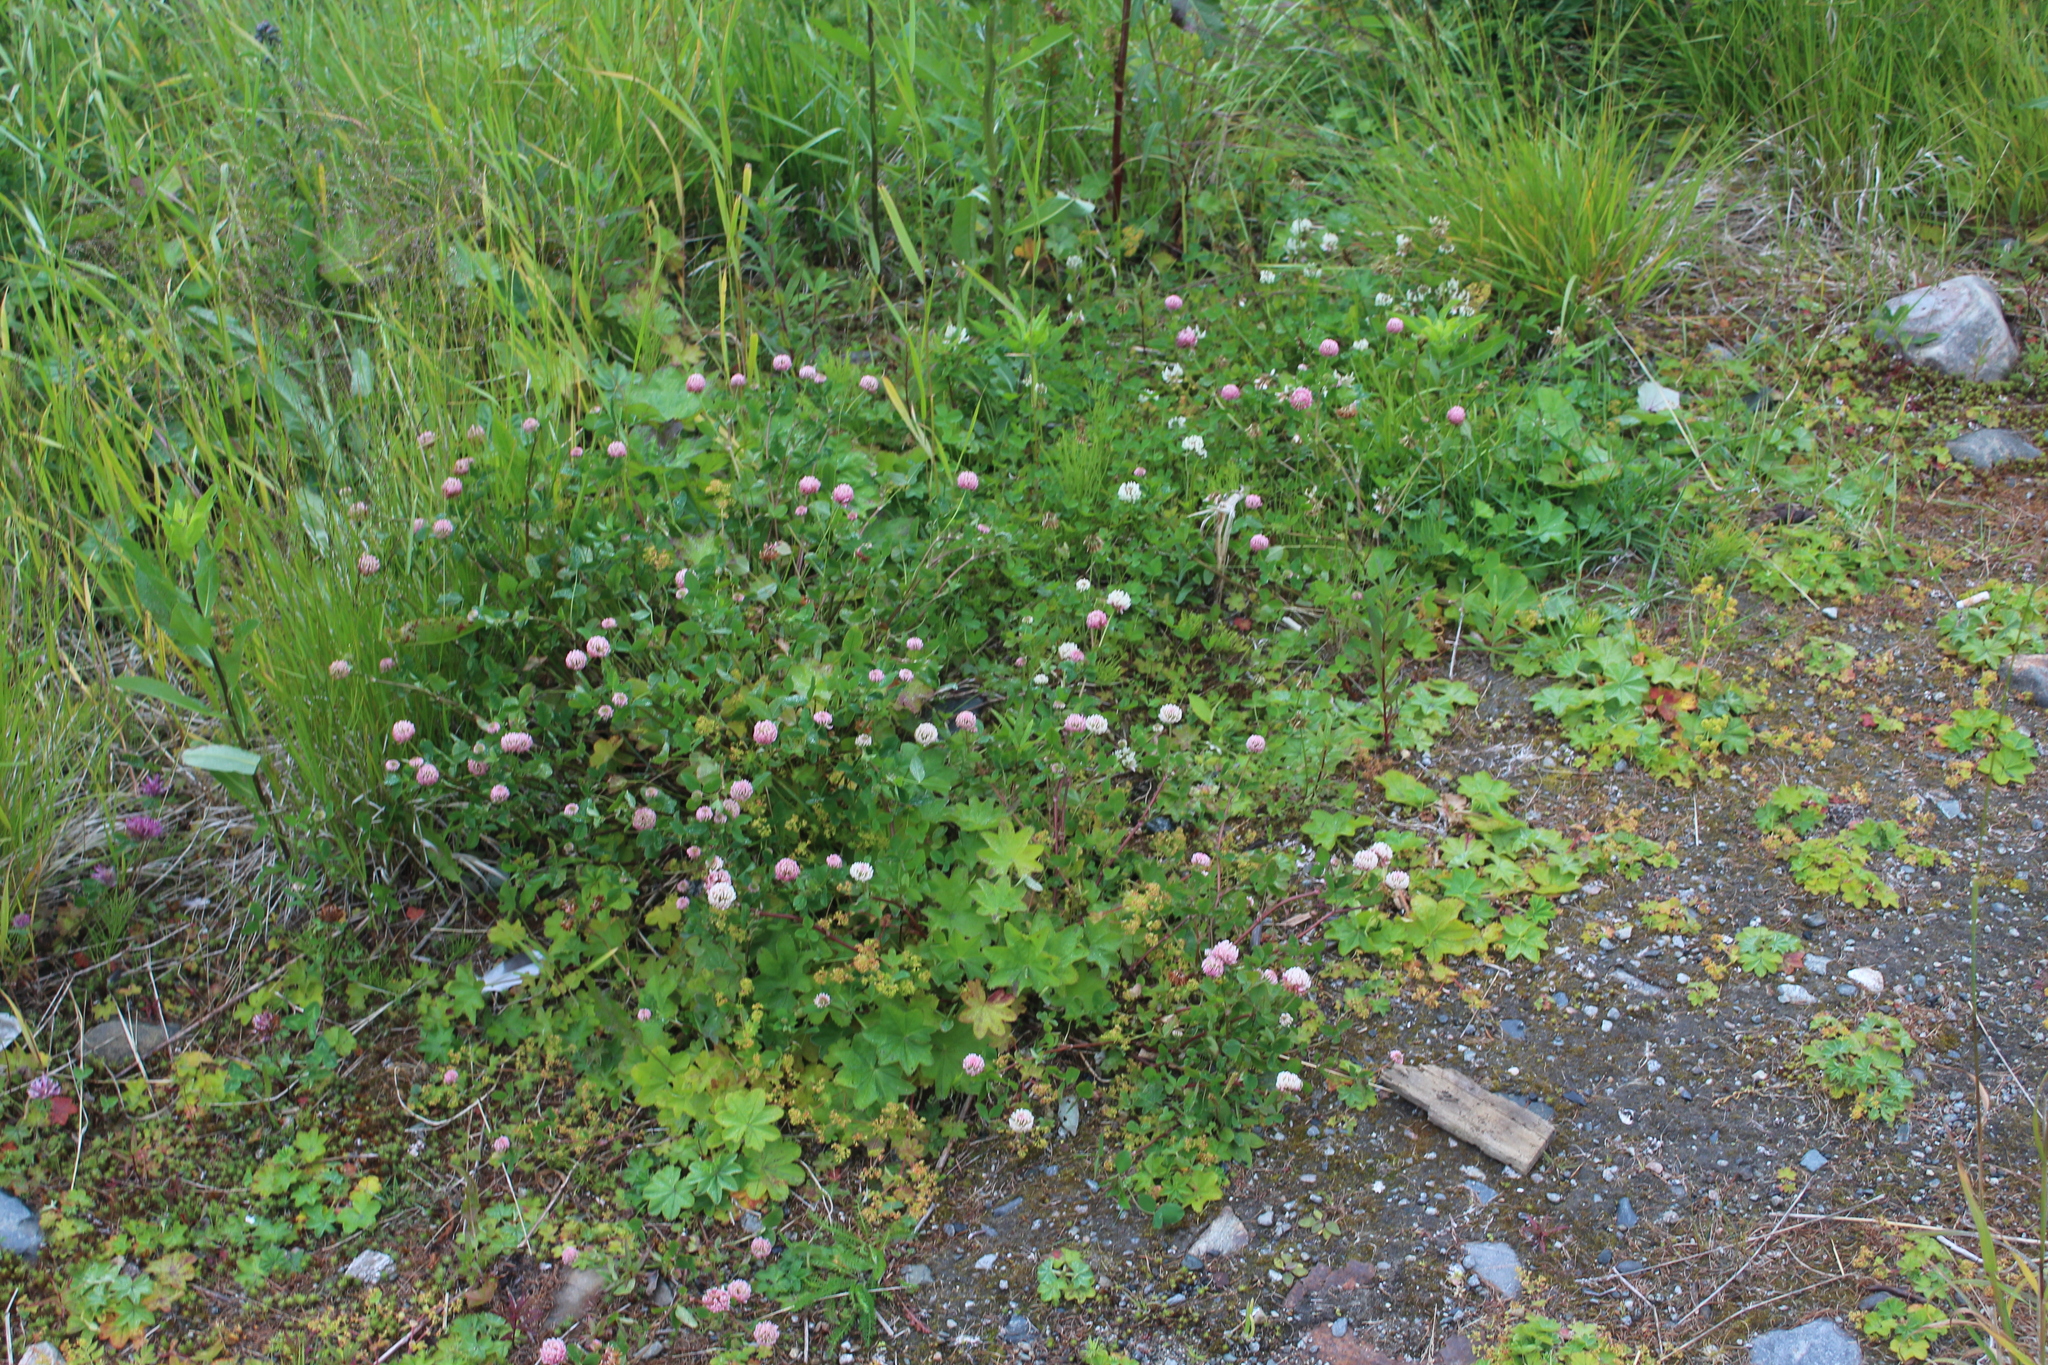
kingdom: Plantae
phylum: Tracheophyta
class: Magnoliopsida
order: Fabales
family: Fabaceae
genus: Trifolium
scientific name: Trifolium hybridum
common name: Alsike clover
